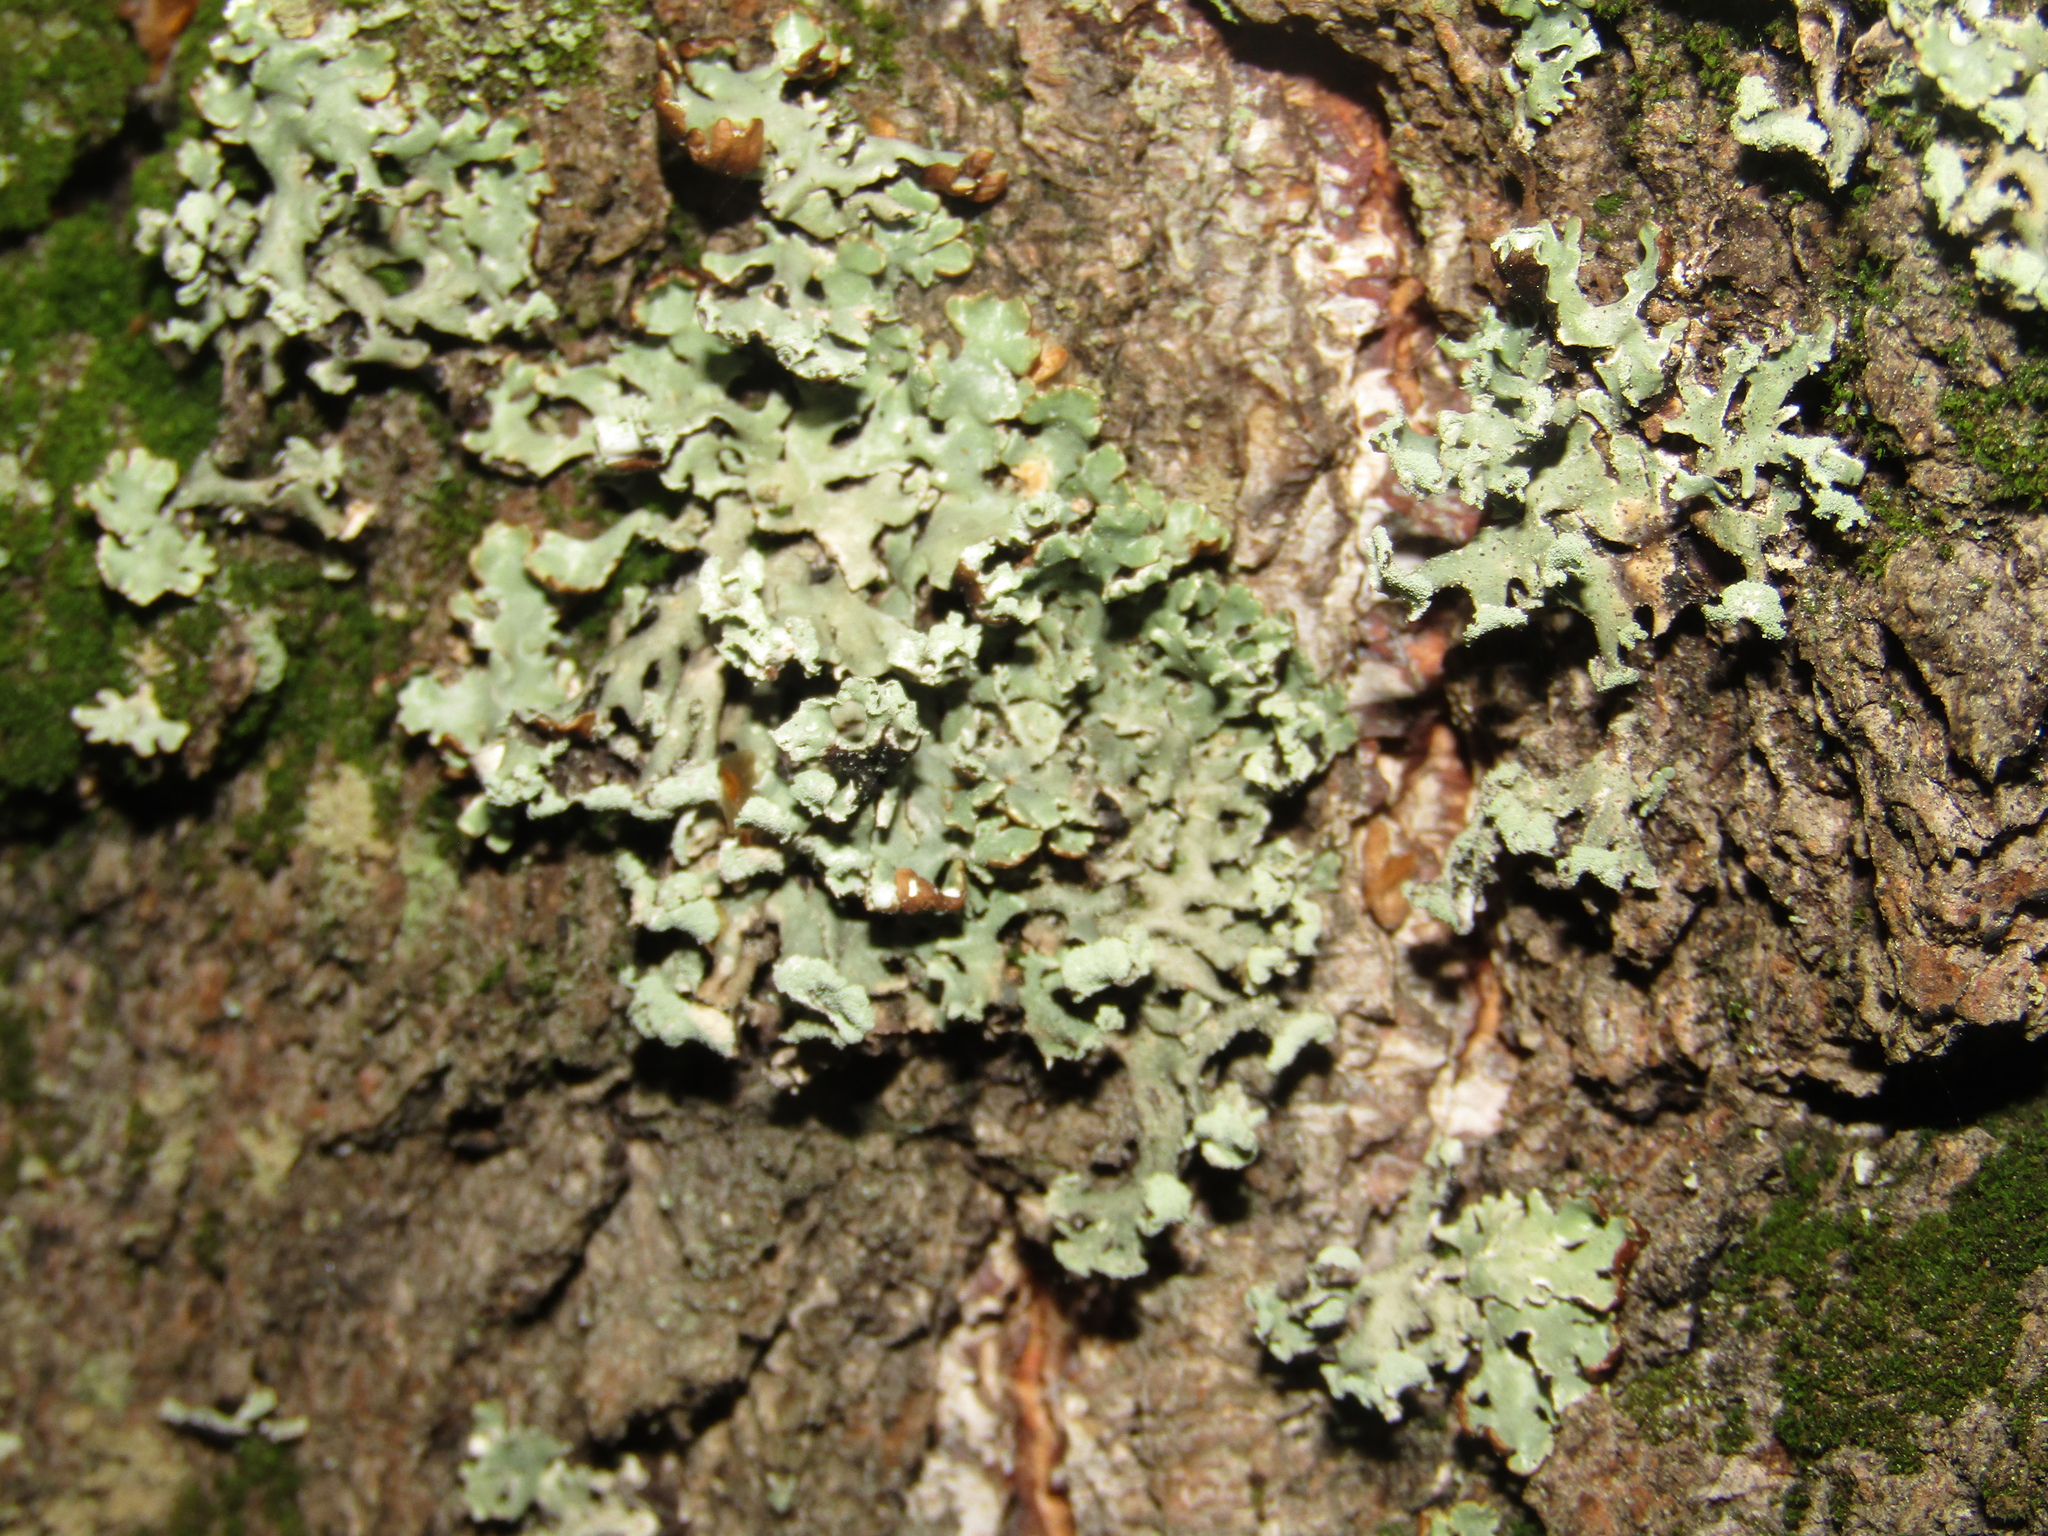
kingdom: Fungi
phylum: Ascomycota
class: Lecanoromycetes
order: Lecanorales
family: Parmeliaceae
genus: Hypogymnia
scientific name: Hypogymnia physodes
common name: Dark crottle
